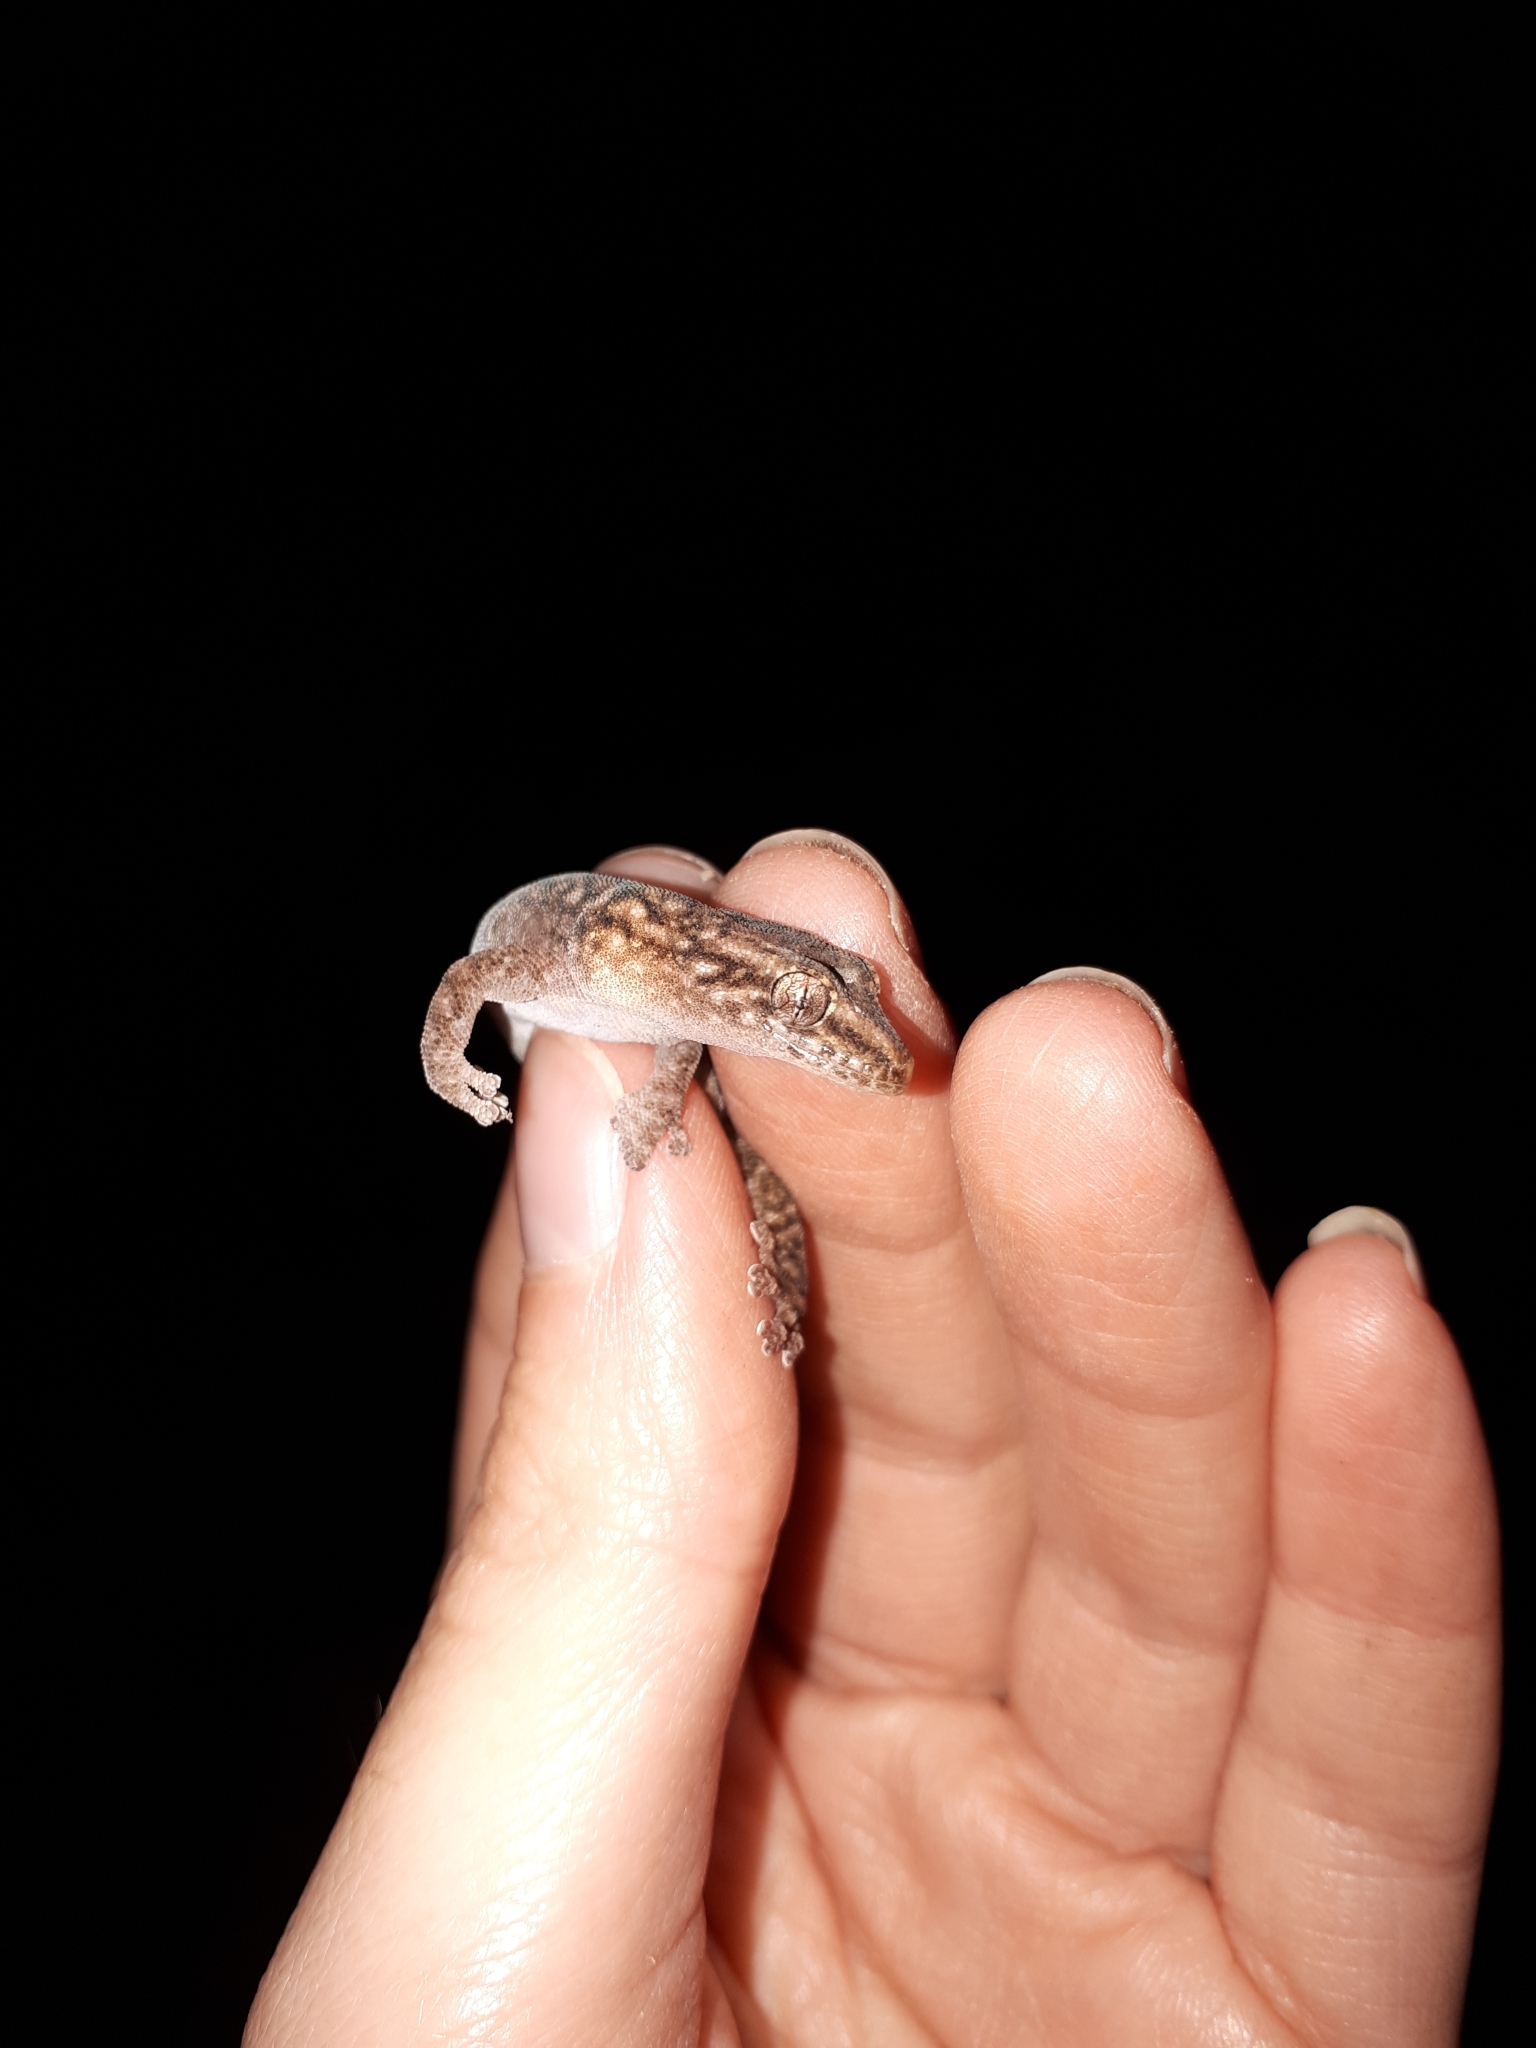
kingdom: Animalia
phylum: Chordata
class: Squamata
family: Gekkonidae
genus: Afrogecko
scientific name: Afrogecko porphyreus
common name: Marbled leaf-toed gecko
